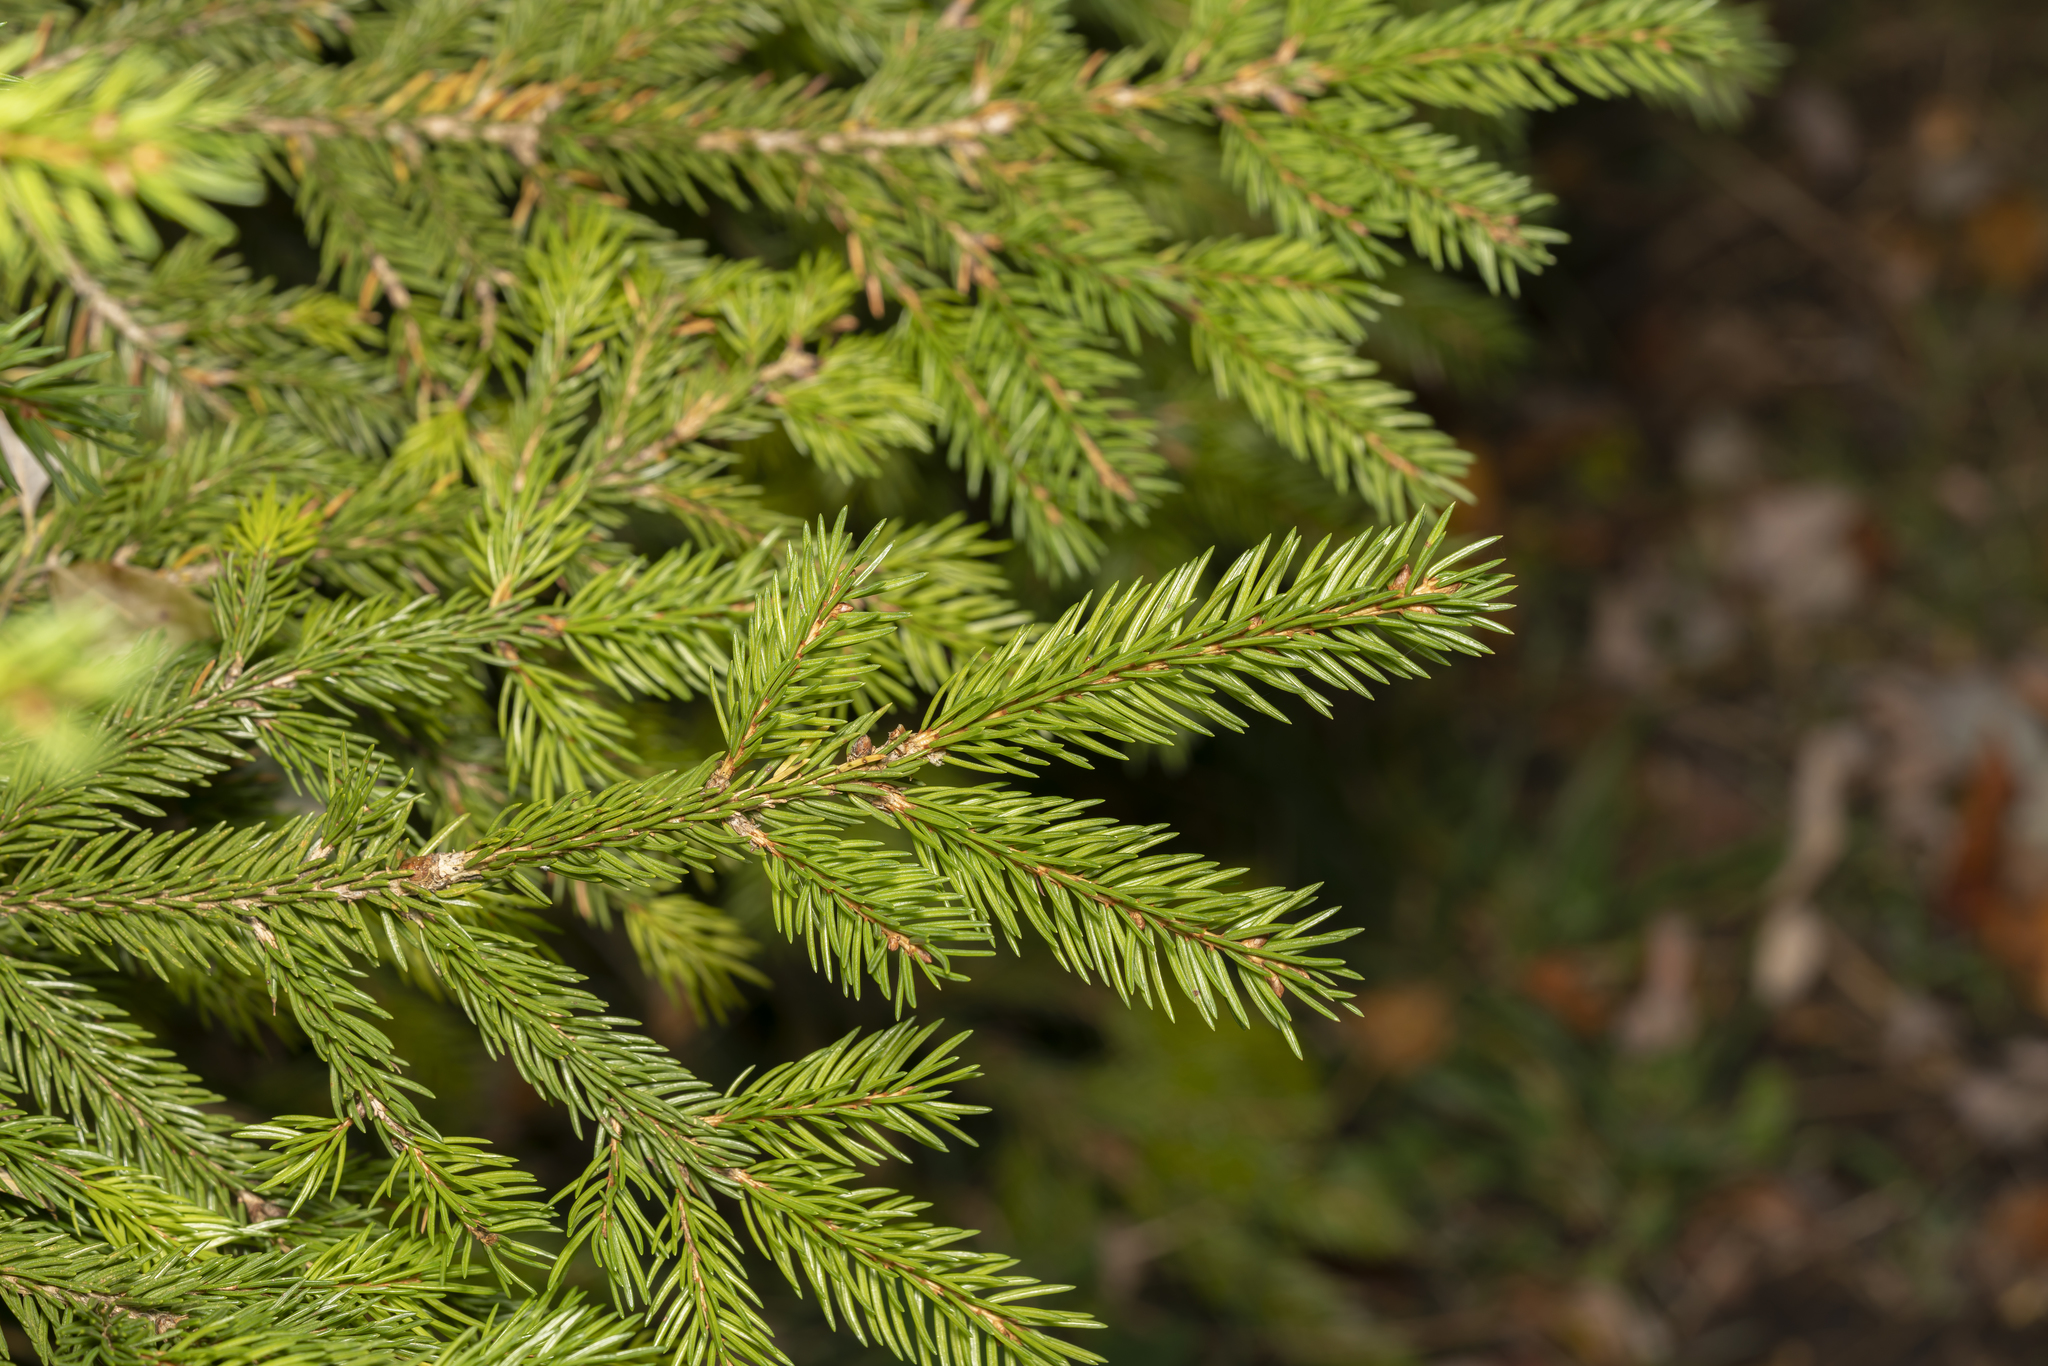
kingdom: Plantae
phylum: Tracheophyta
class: Pinopsida
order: Pinales
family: Pinaceae
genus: Picea
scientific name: Picea abies
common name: Norway spruce
